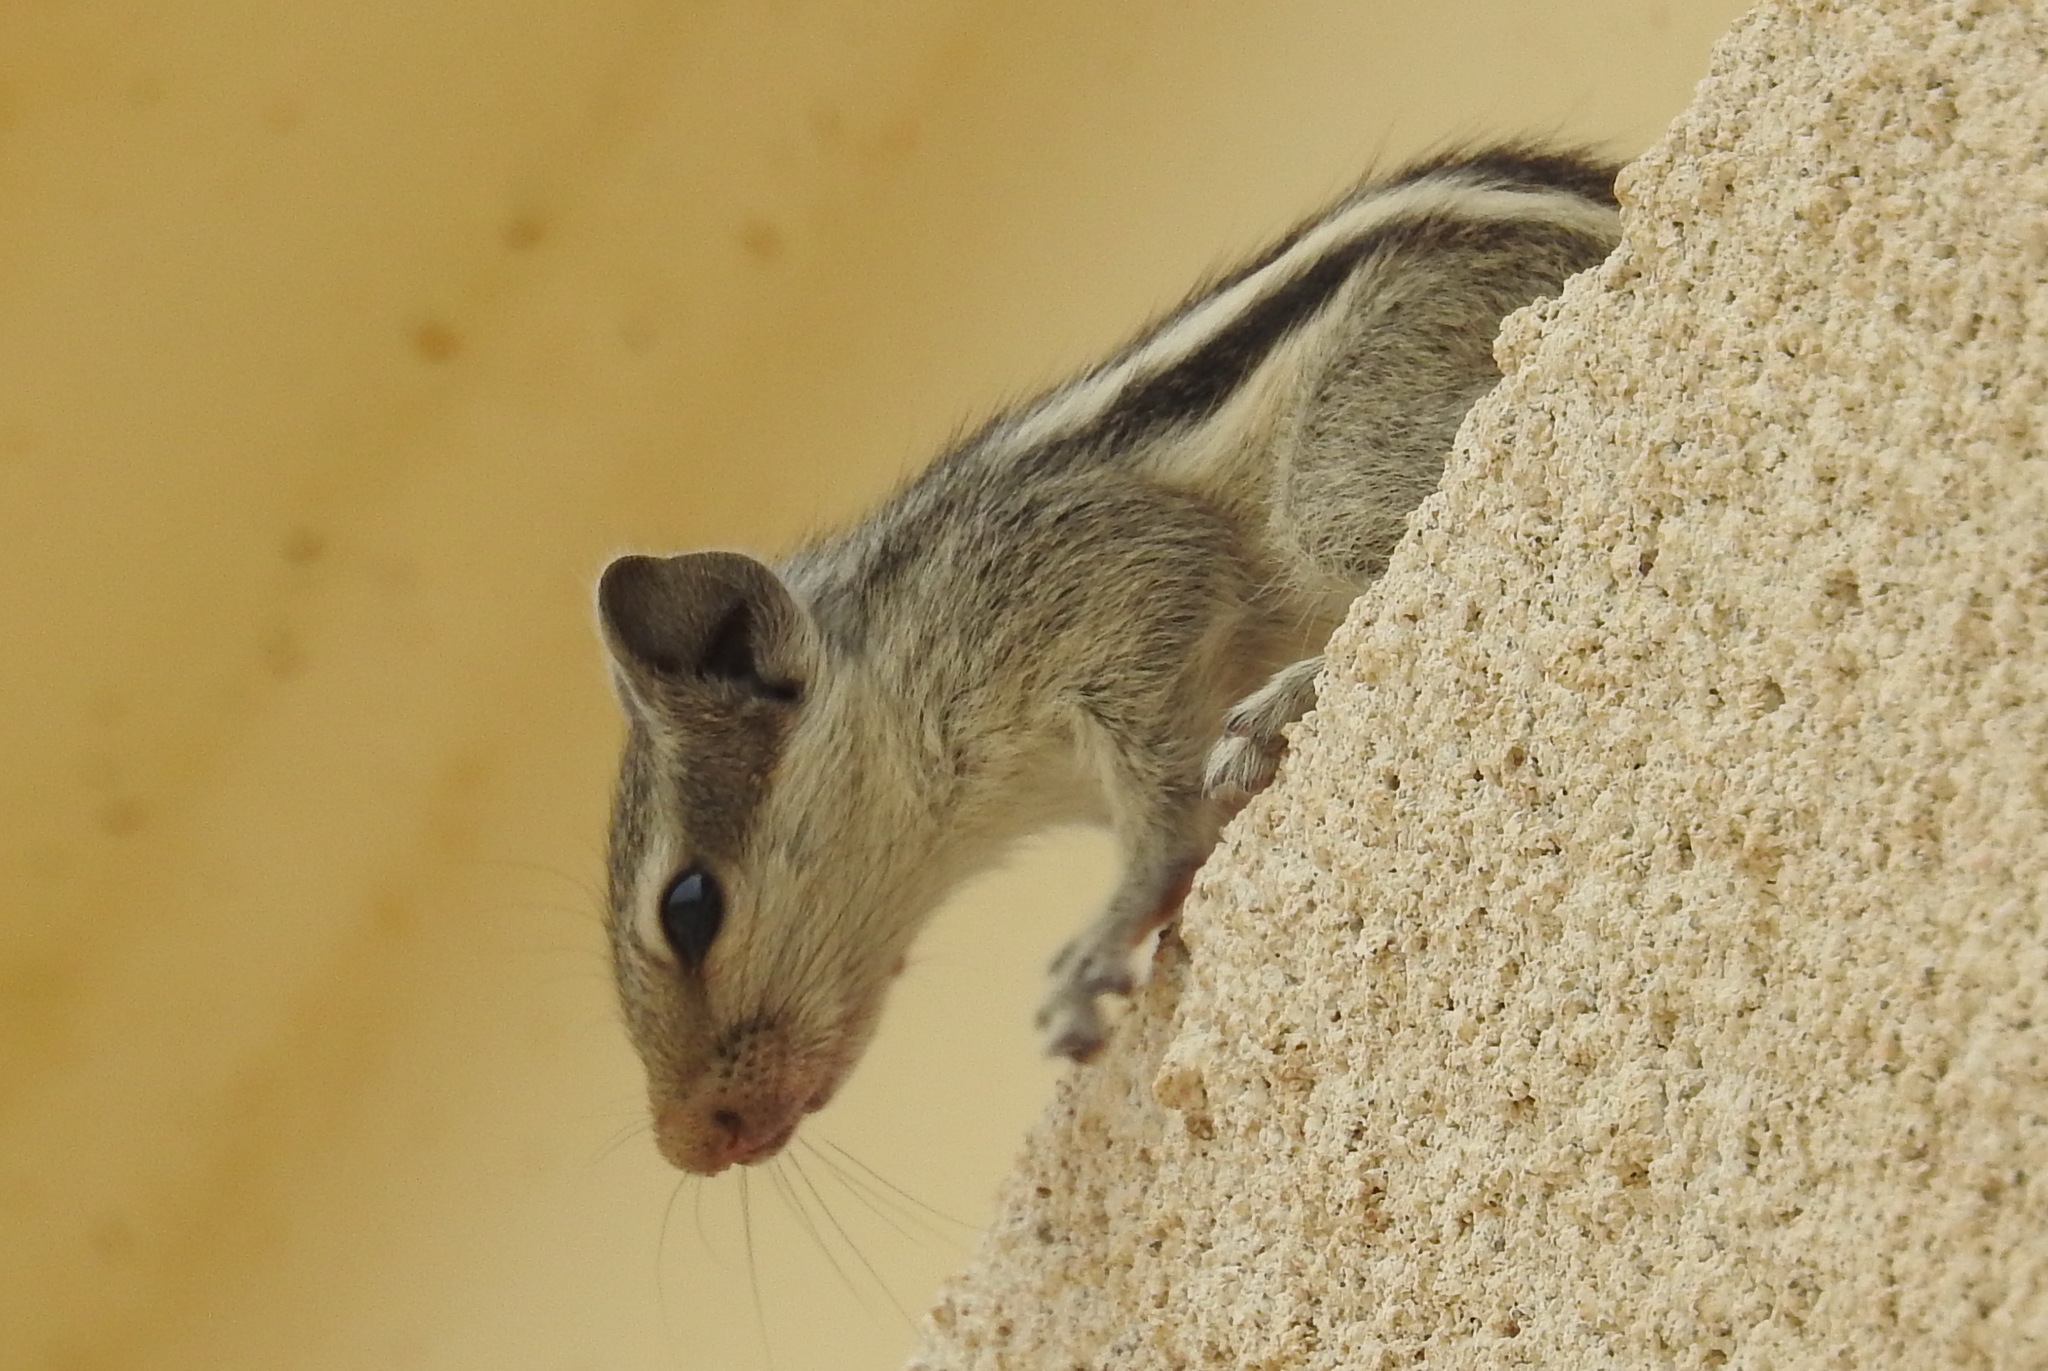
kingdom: Animalia
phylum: Chordata
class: Mammalia
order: Rodentia
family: Sciuridae
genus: Funambulus
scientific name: Funambulus pennantii
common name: Northern palm squirrel
